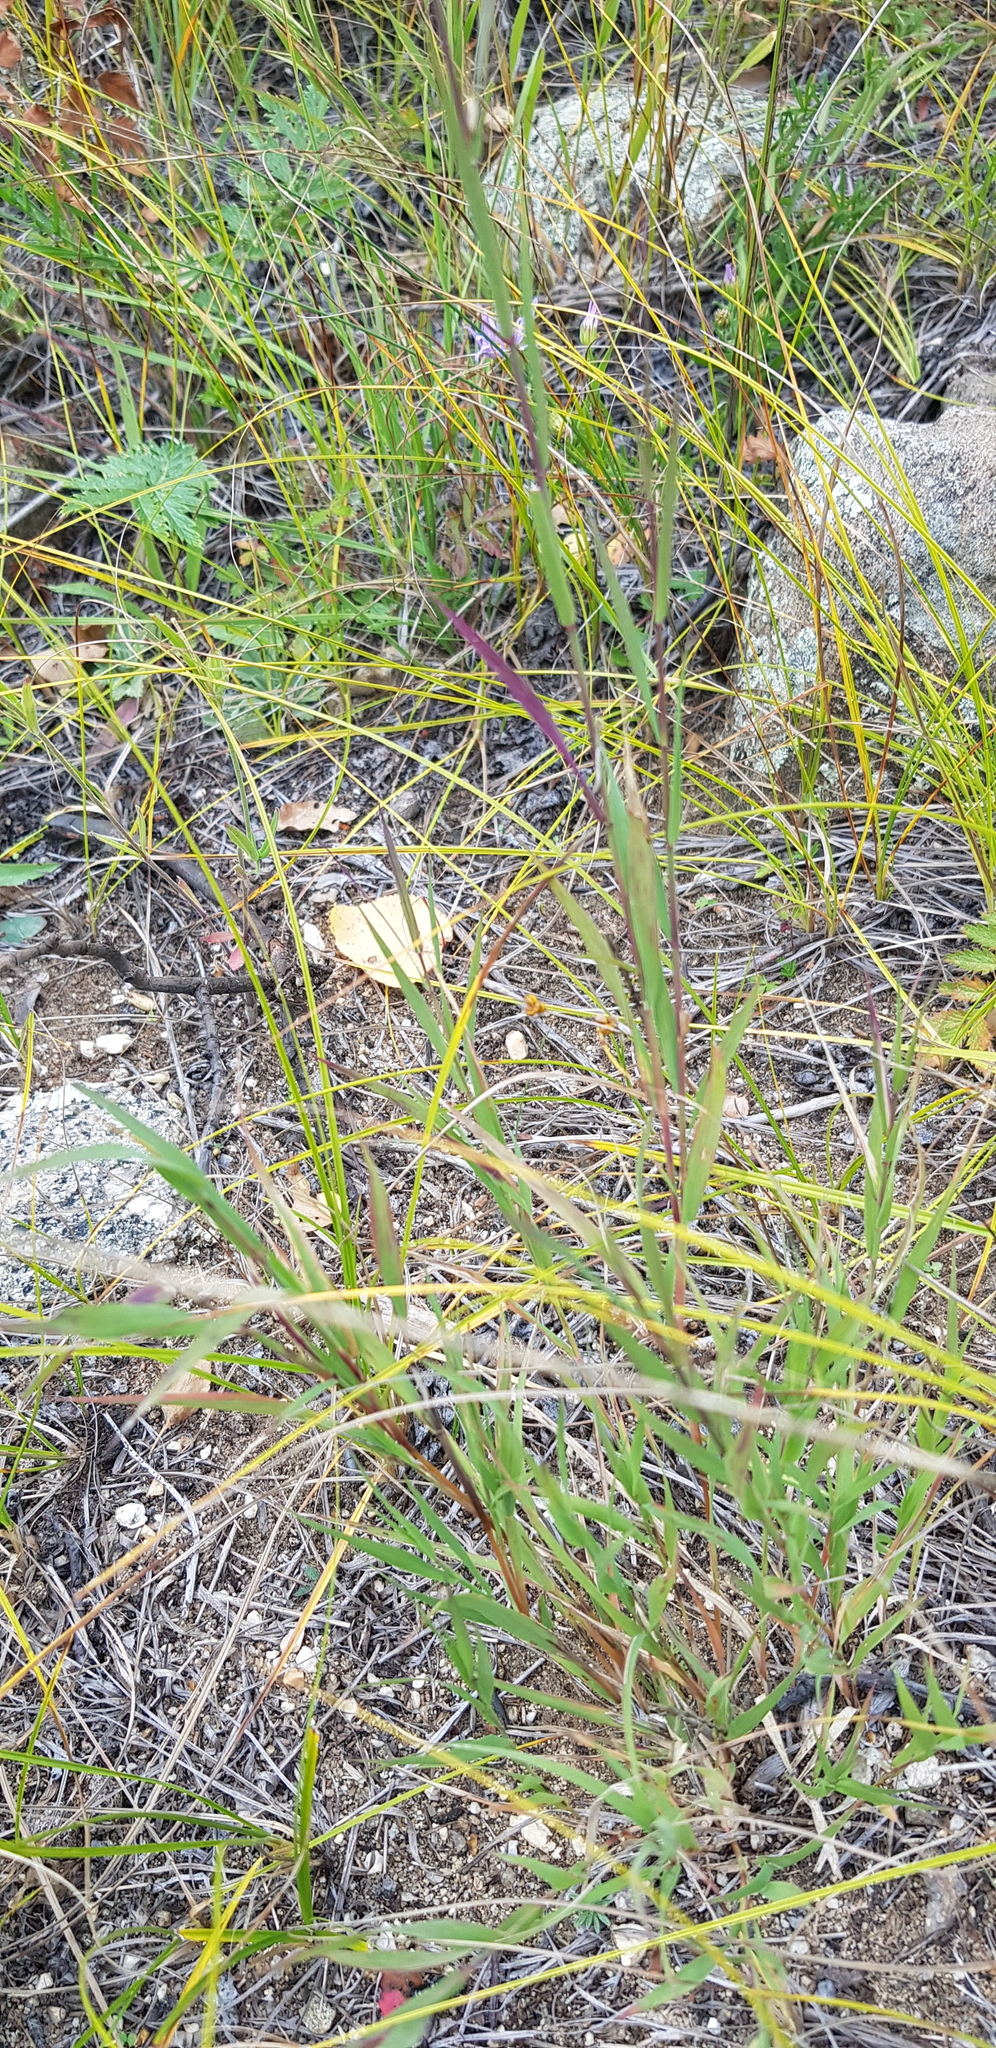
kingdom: Plantae
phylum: Tracheophyta
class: Magnoliopsida
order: Caryophyllales
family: Caryophyllaceae
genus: Dianthus
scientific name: Dianthus chinensis
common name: Rainbow pink
